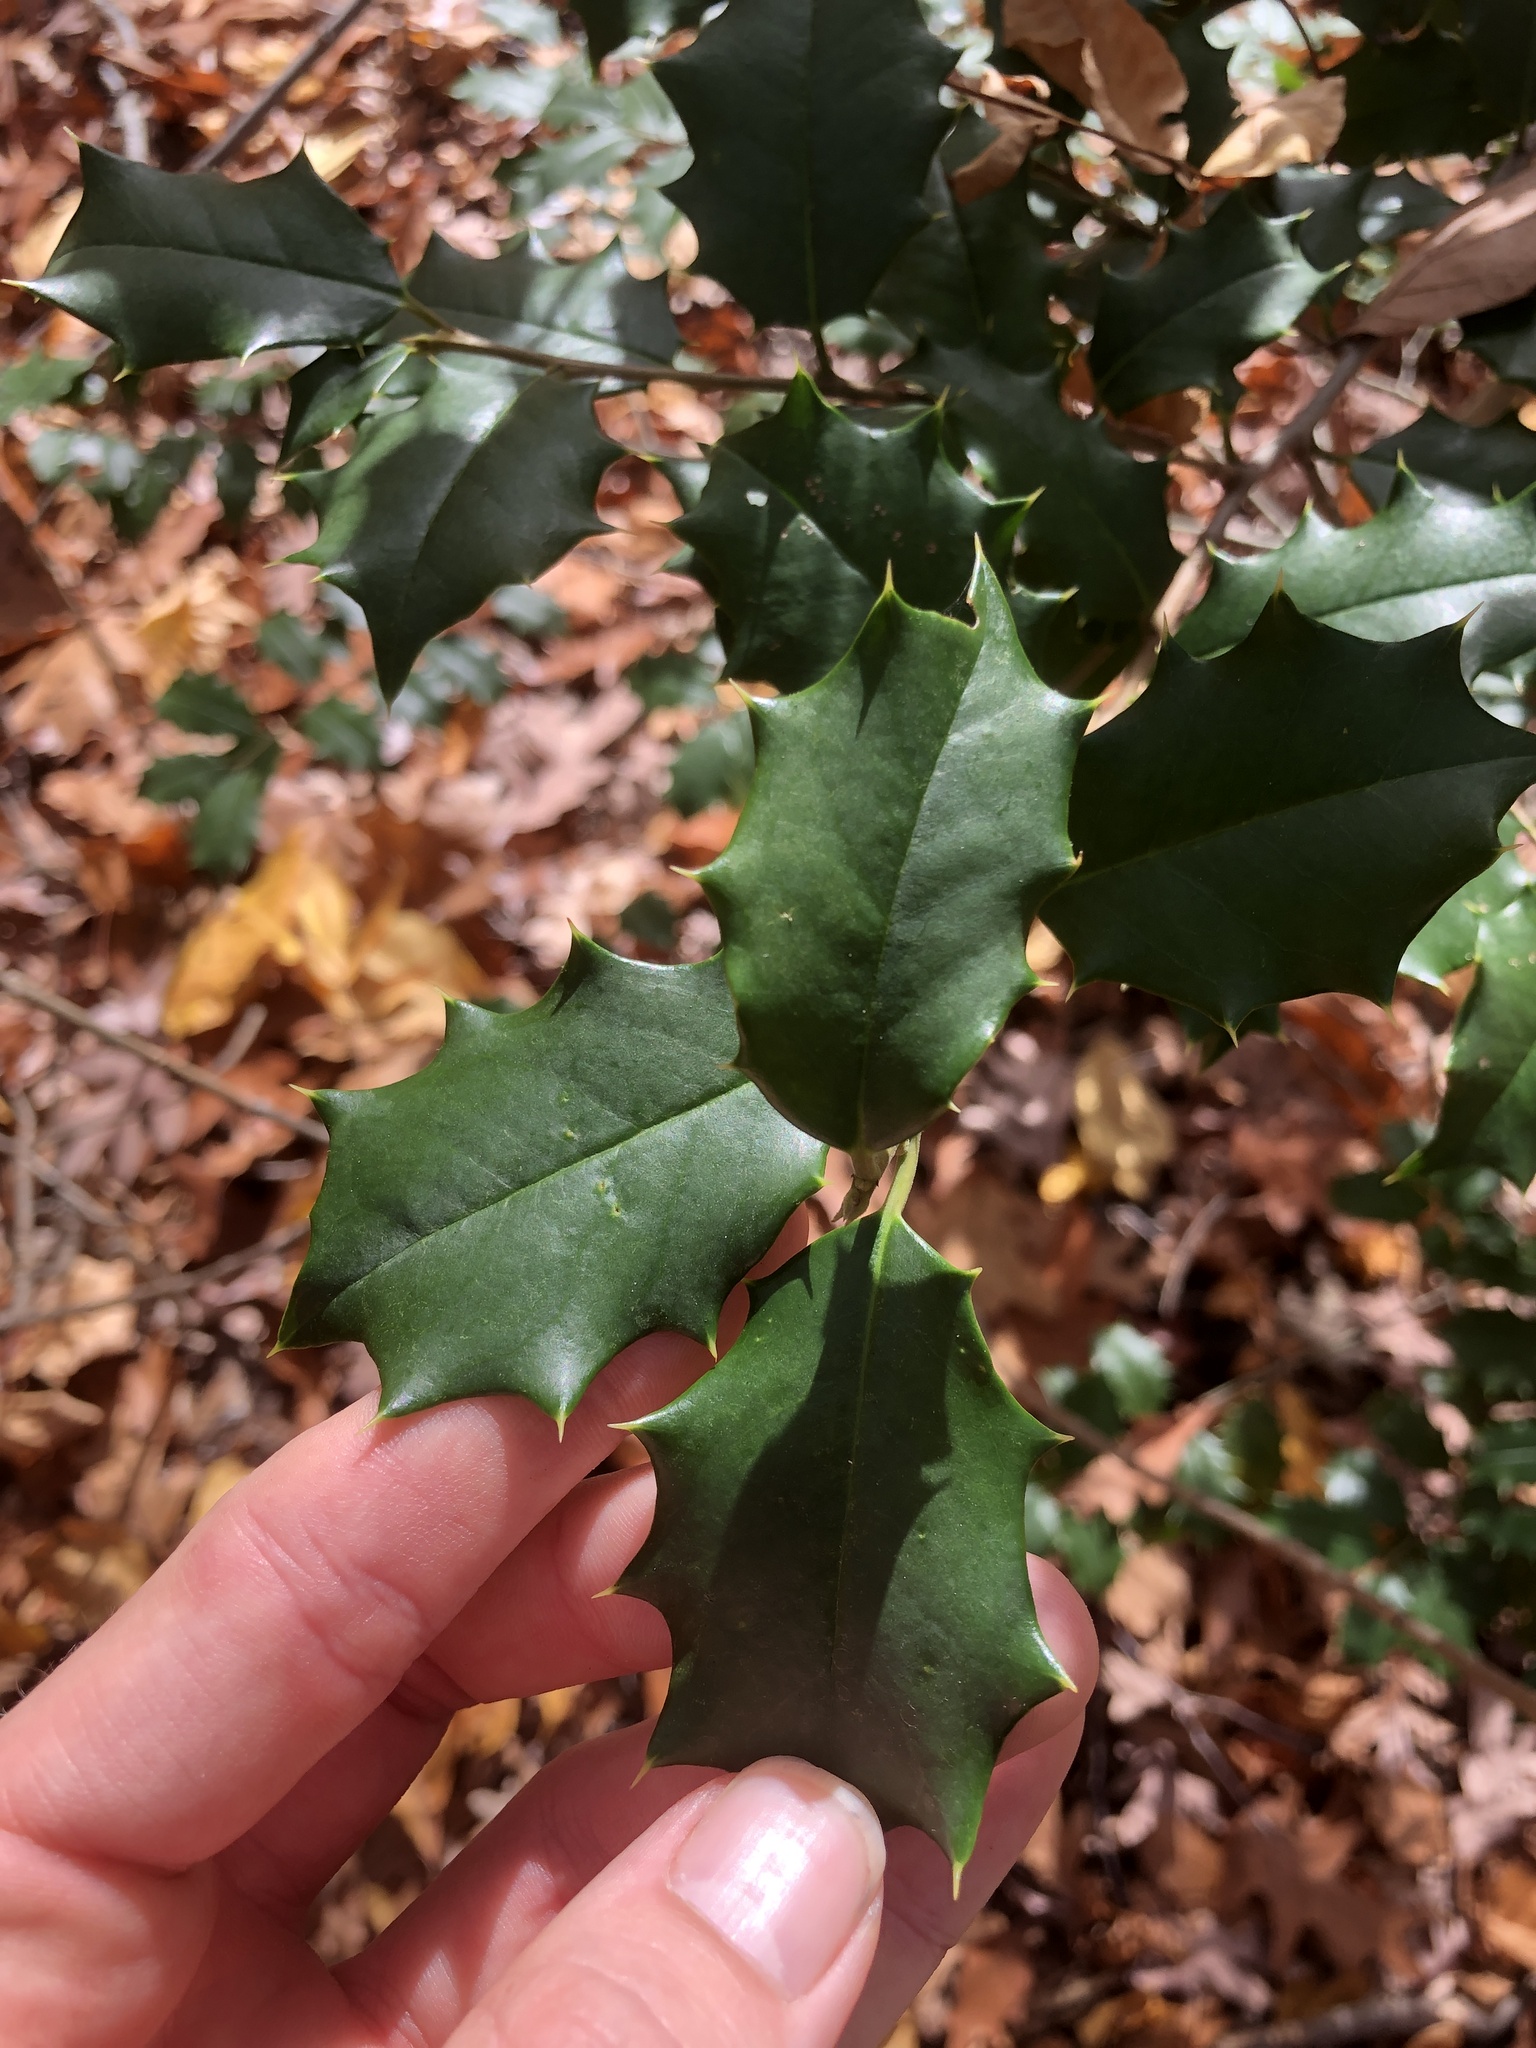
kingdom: Plantae
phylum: Tracheophyta
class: Magnoliopsida
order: Aquifoliales
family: Aquifoliaceae
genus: Ilex
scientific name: Ilex opaca
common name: American holly
